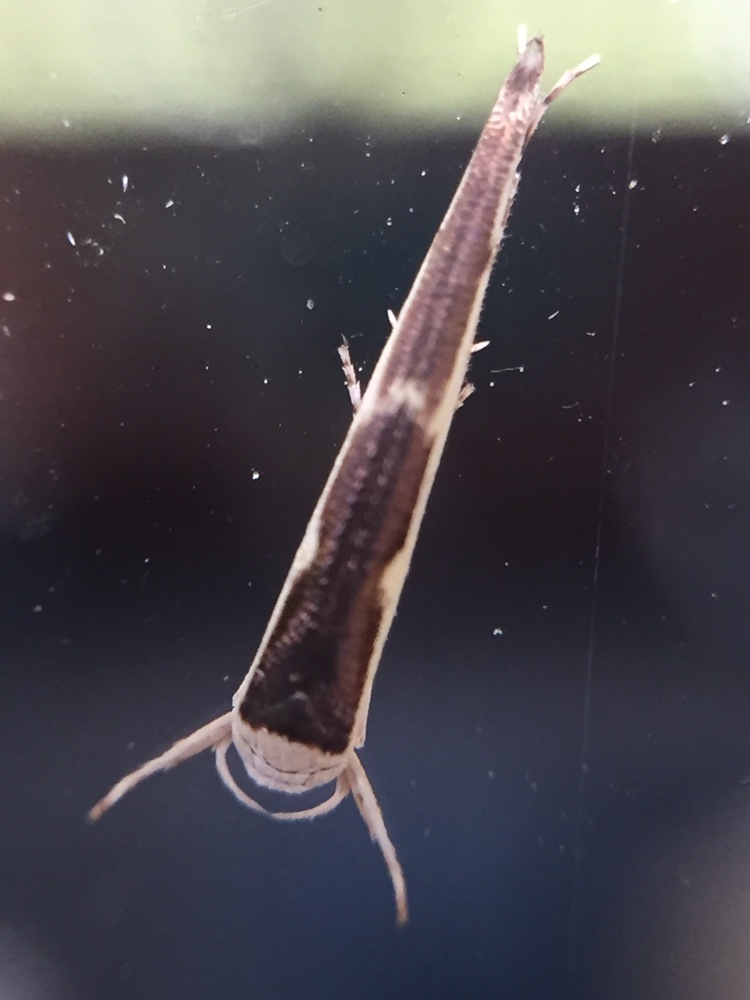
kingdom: Animalia
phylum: Arthropoda
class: Insecta
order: Lepidoptera
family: Roeslerstammiidae
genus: Vanicela
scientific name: Vanicela disjunctella
